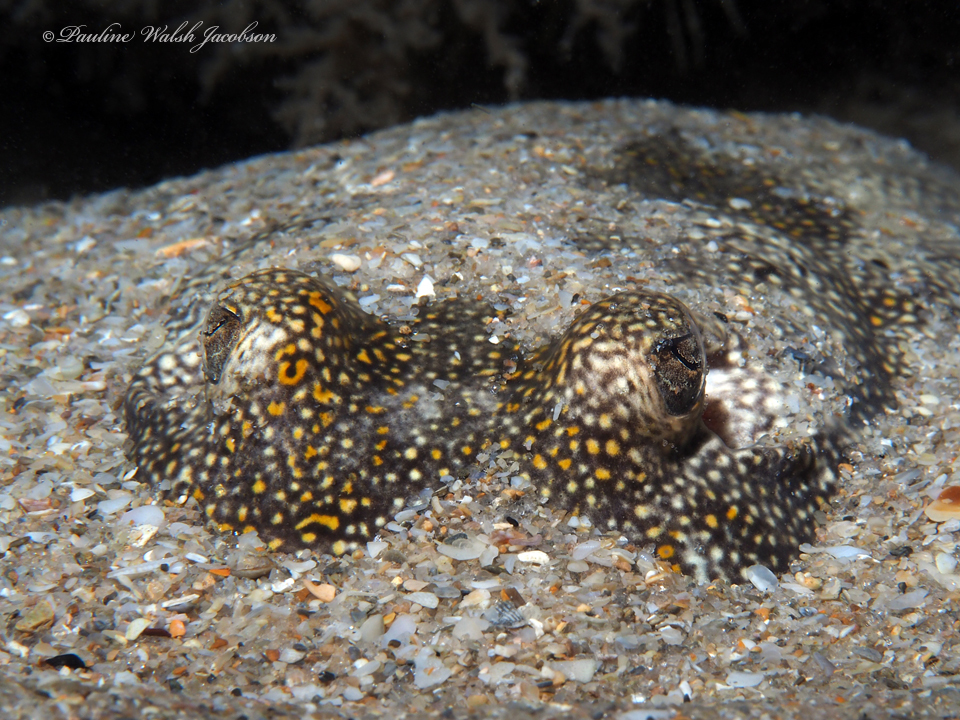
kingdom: Animalia
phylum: Chordata
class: Elasmobranchii
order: Myliobatiformes
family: Urotrygonidae
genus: Urobatis
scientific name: Urobatis jamaicensis
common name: Yellow stingray
